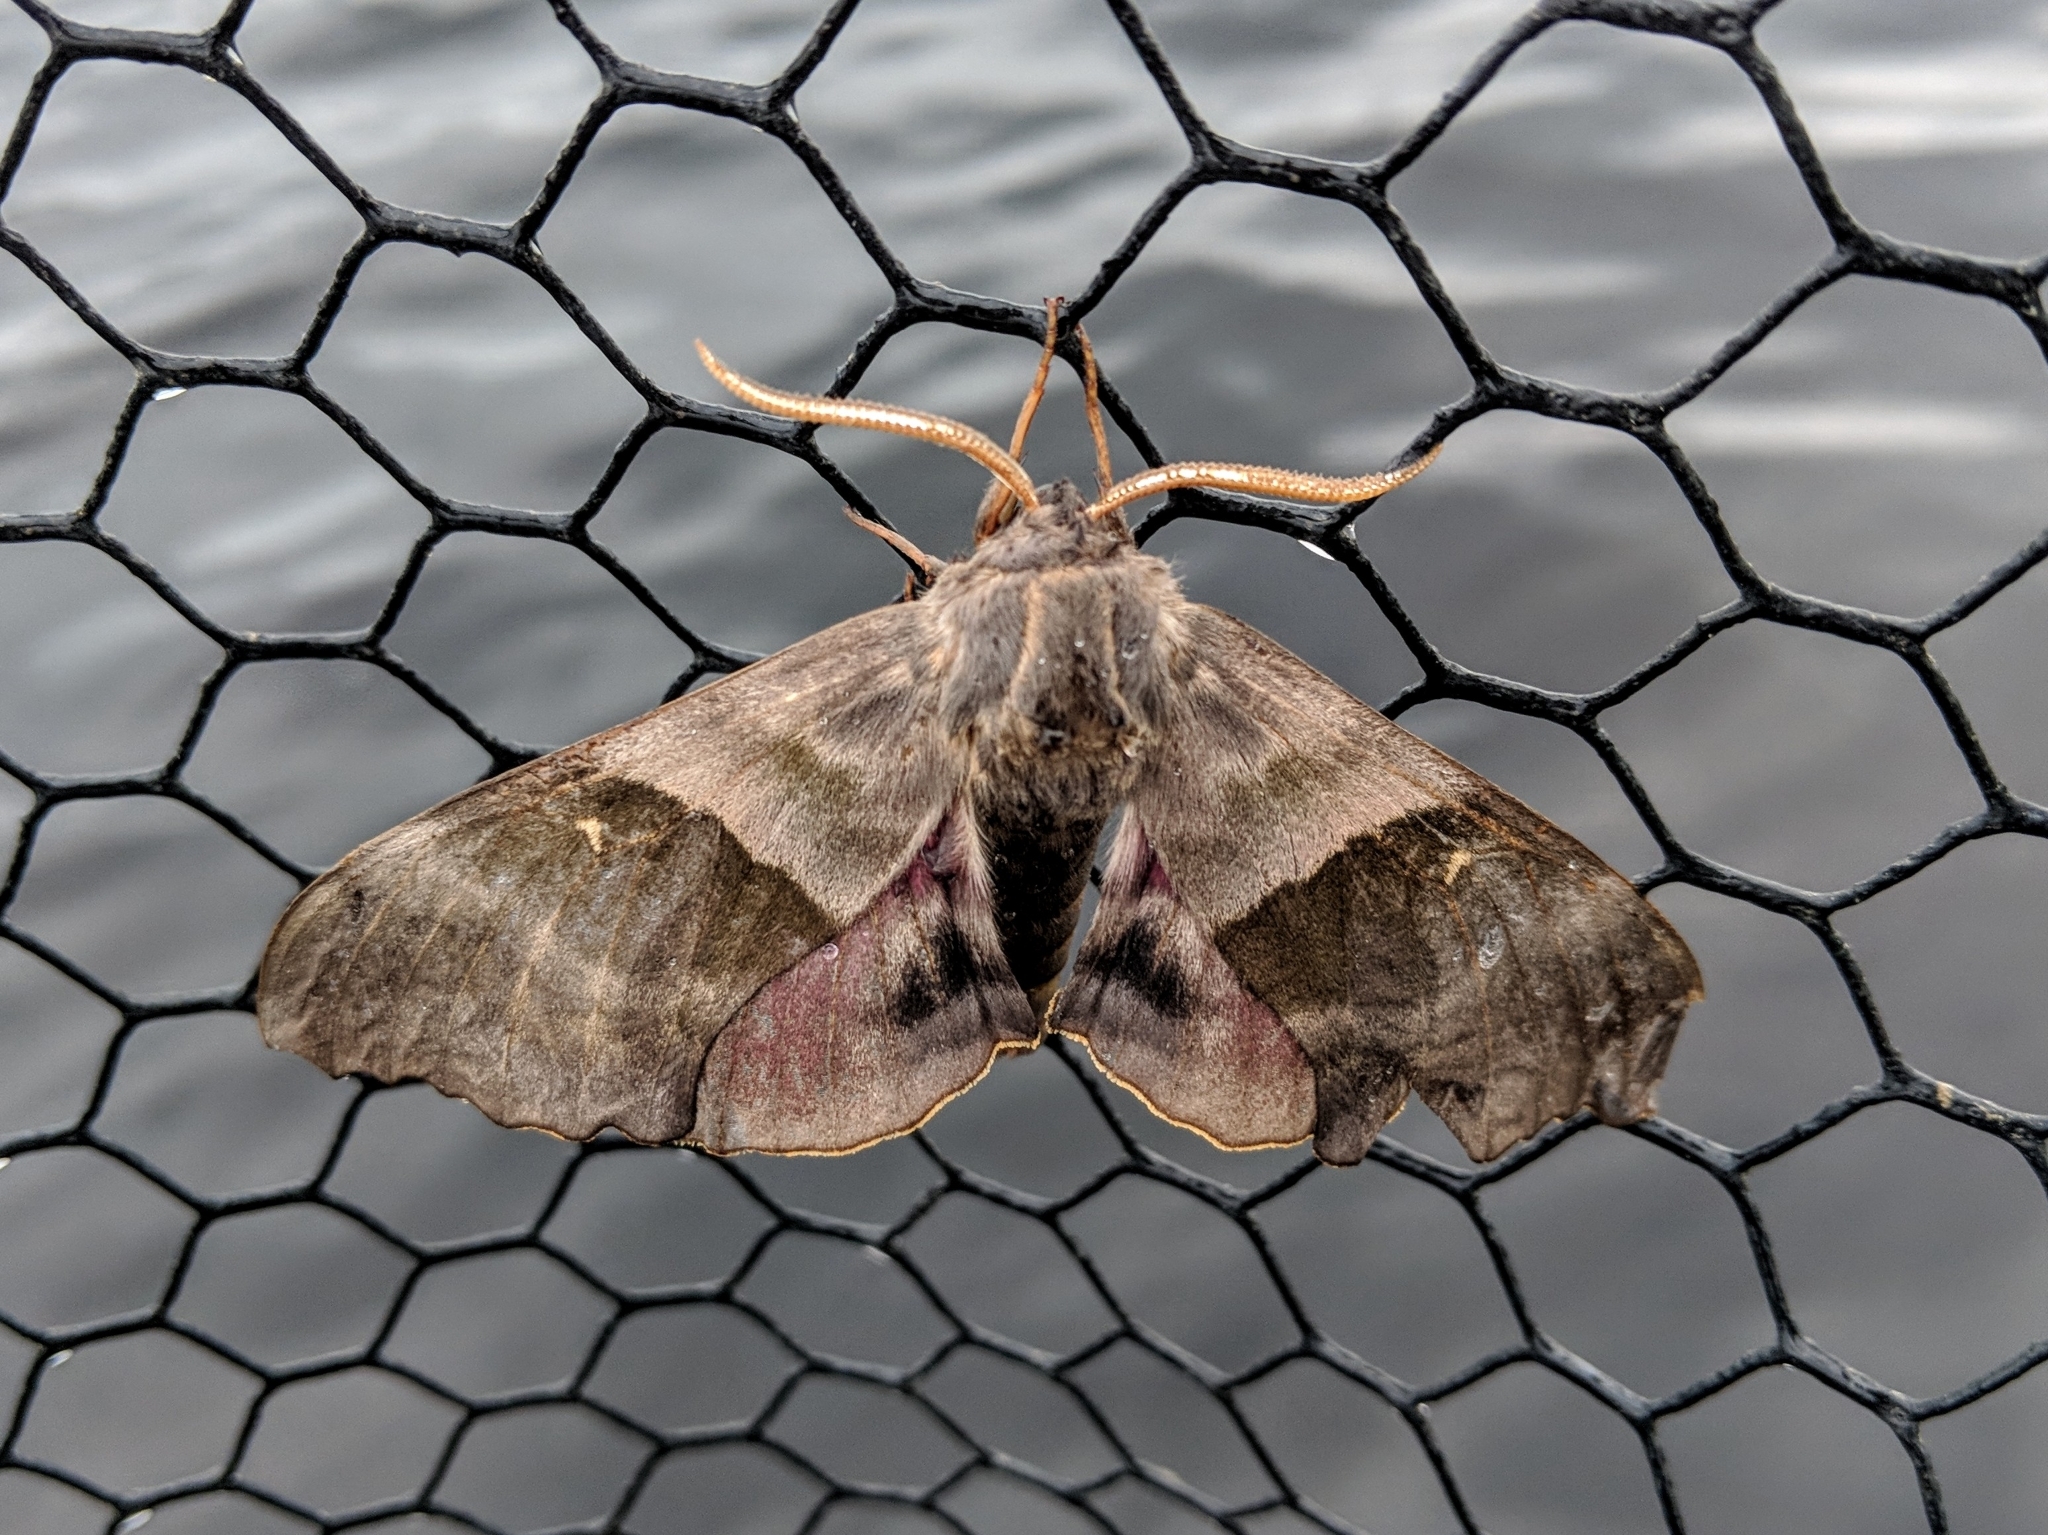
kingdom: Animalia
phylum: Arthropoda
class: Insecta
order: Lepidoptera
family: Sphingidae
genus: Pachysphinx
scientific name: Pachysphinx modesta
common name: Big poplar sphinx
